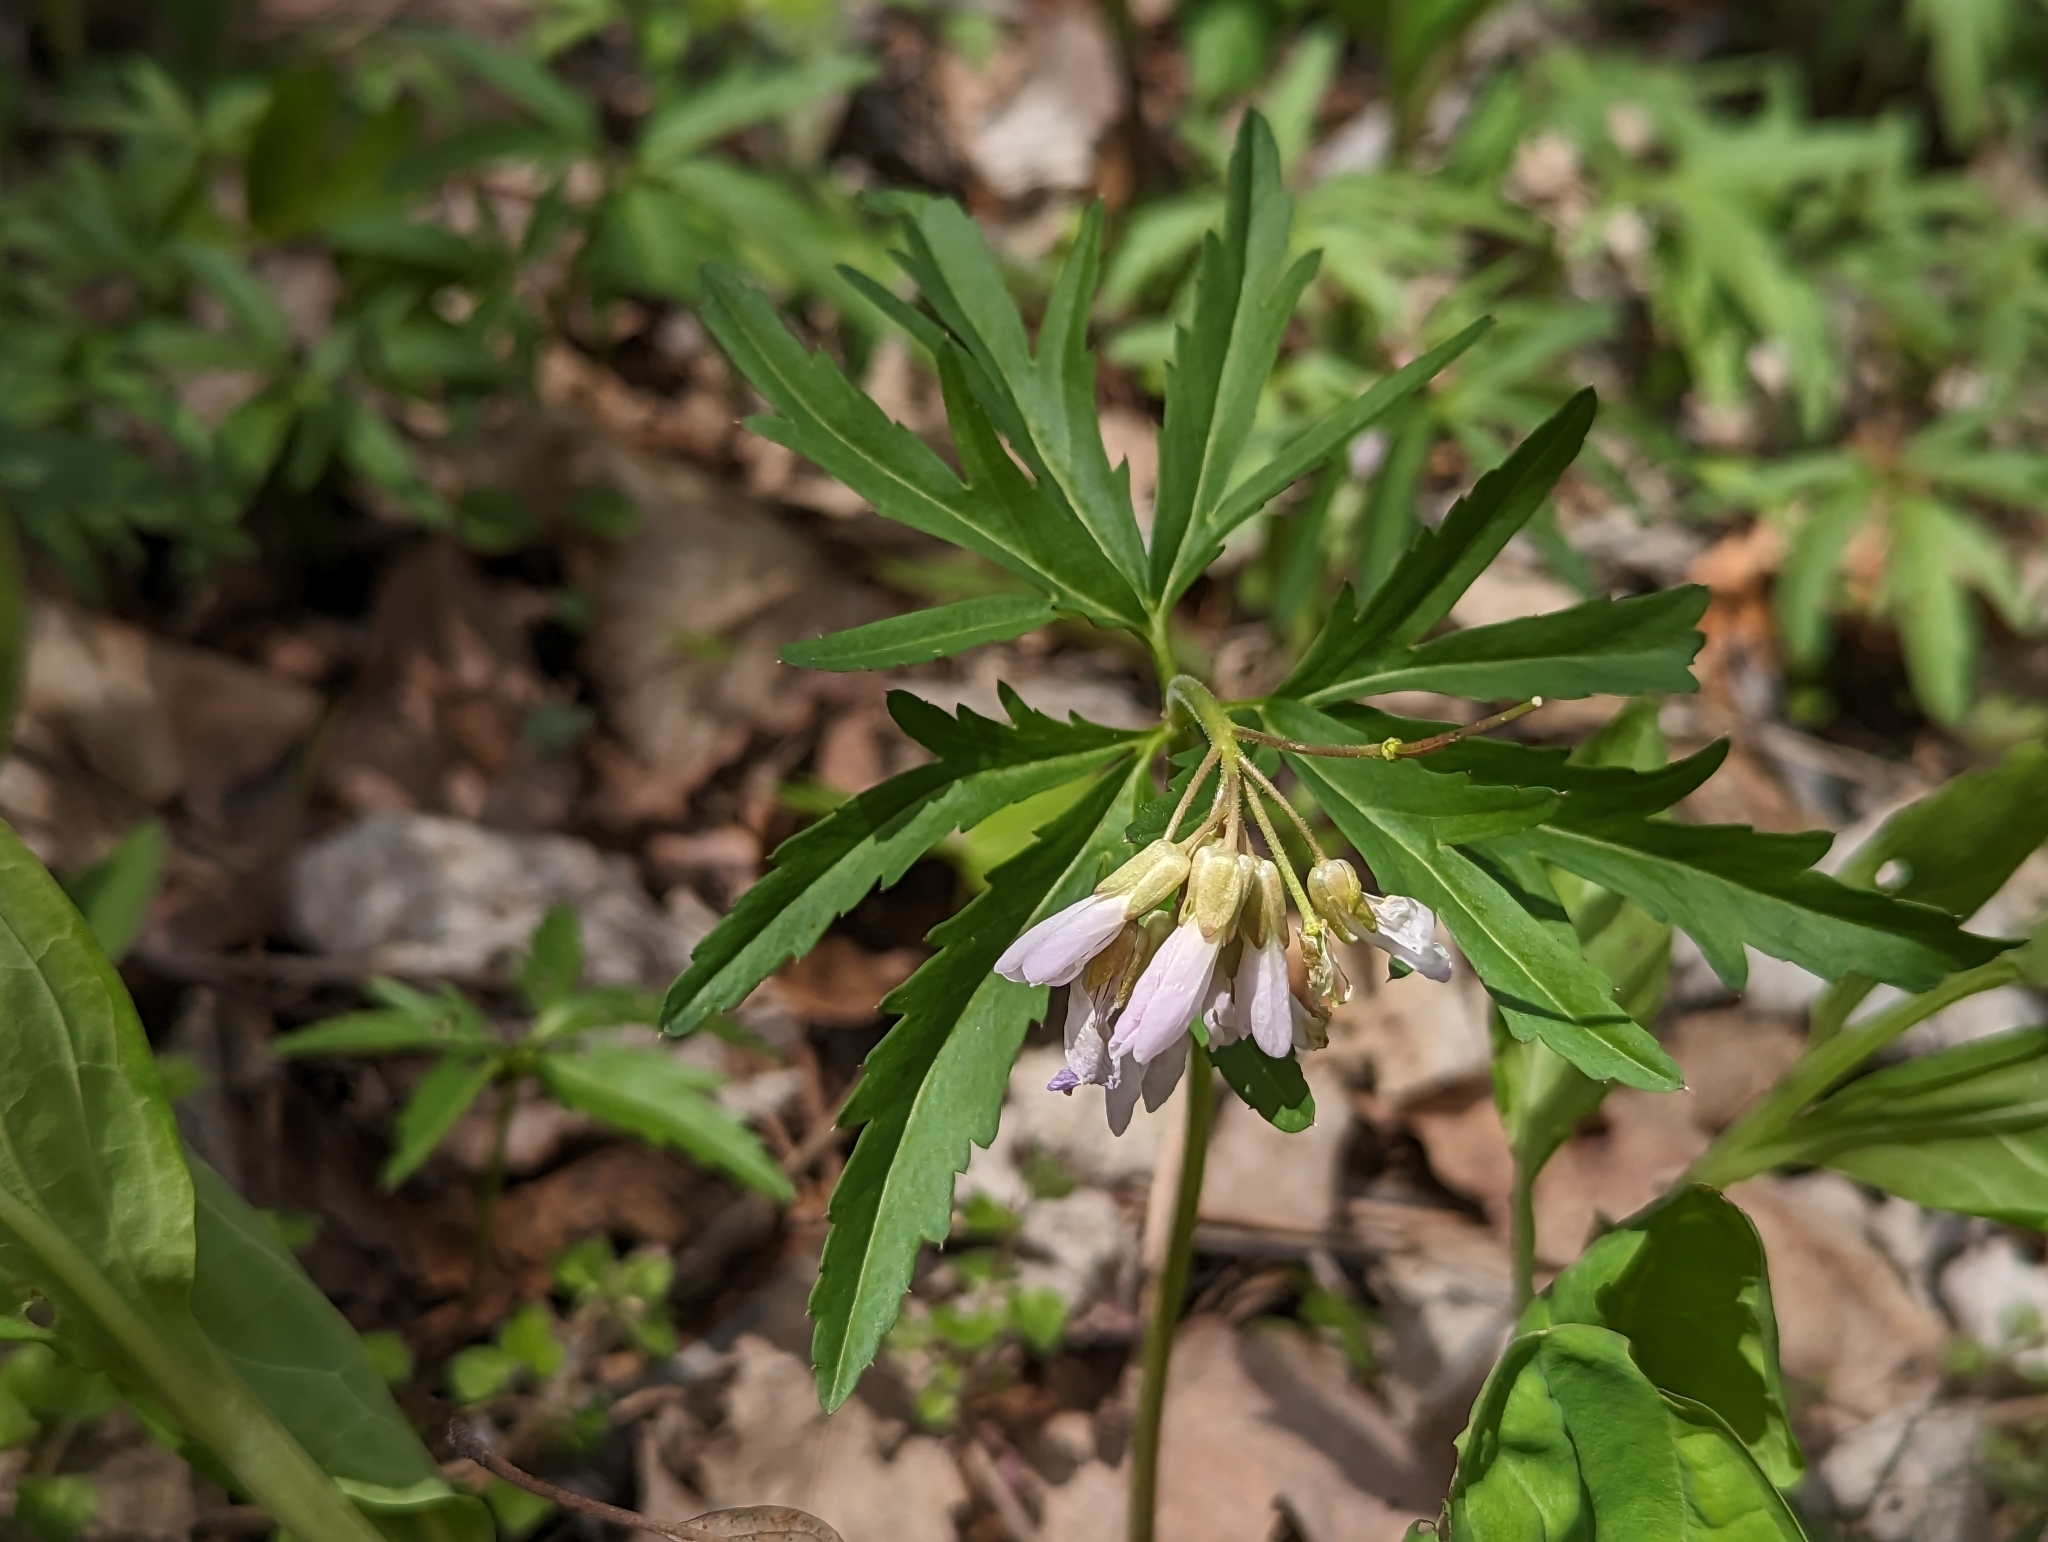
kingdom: Plantae
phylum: Tracheophyta
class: Magnoliopsida
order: Brassicales
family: Brassicaceae
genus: Cardamine
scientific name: Cardamine concatenata
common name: Cut-leaf toothcup
